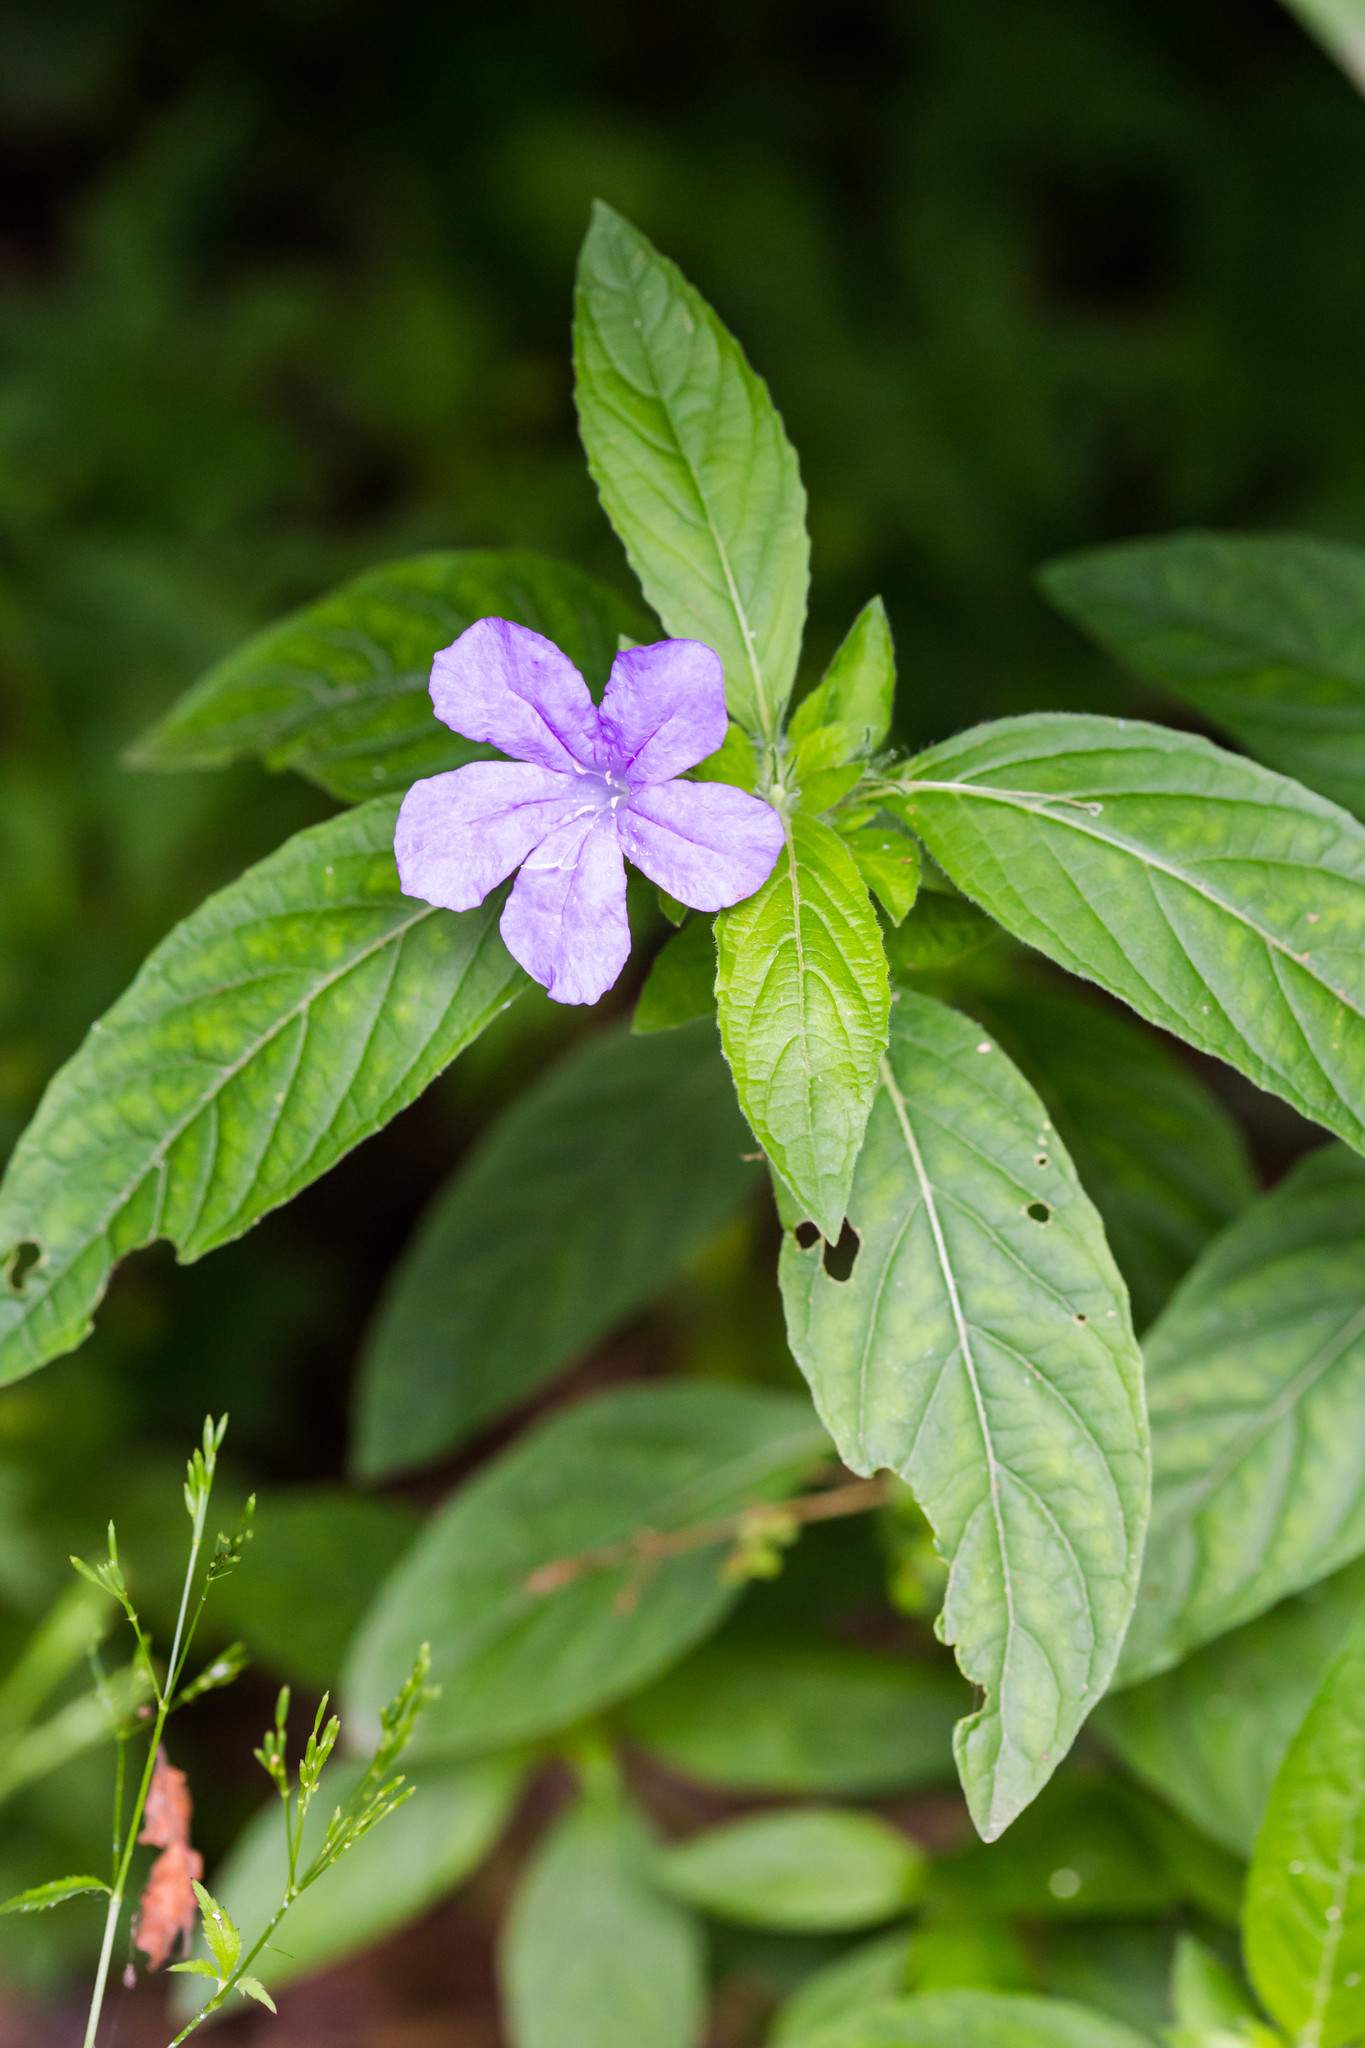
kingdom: Plantae
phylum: Tracheophyta
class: Magnoliopsida
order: Lamiales
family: Acanthaceae
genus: Ruellia
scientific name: Ruellia caroliniensis
